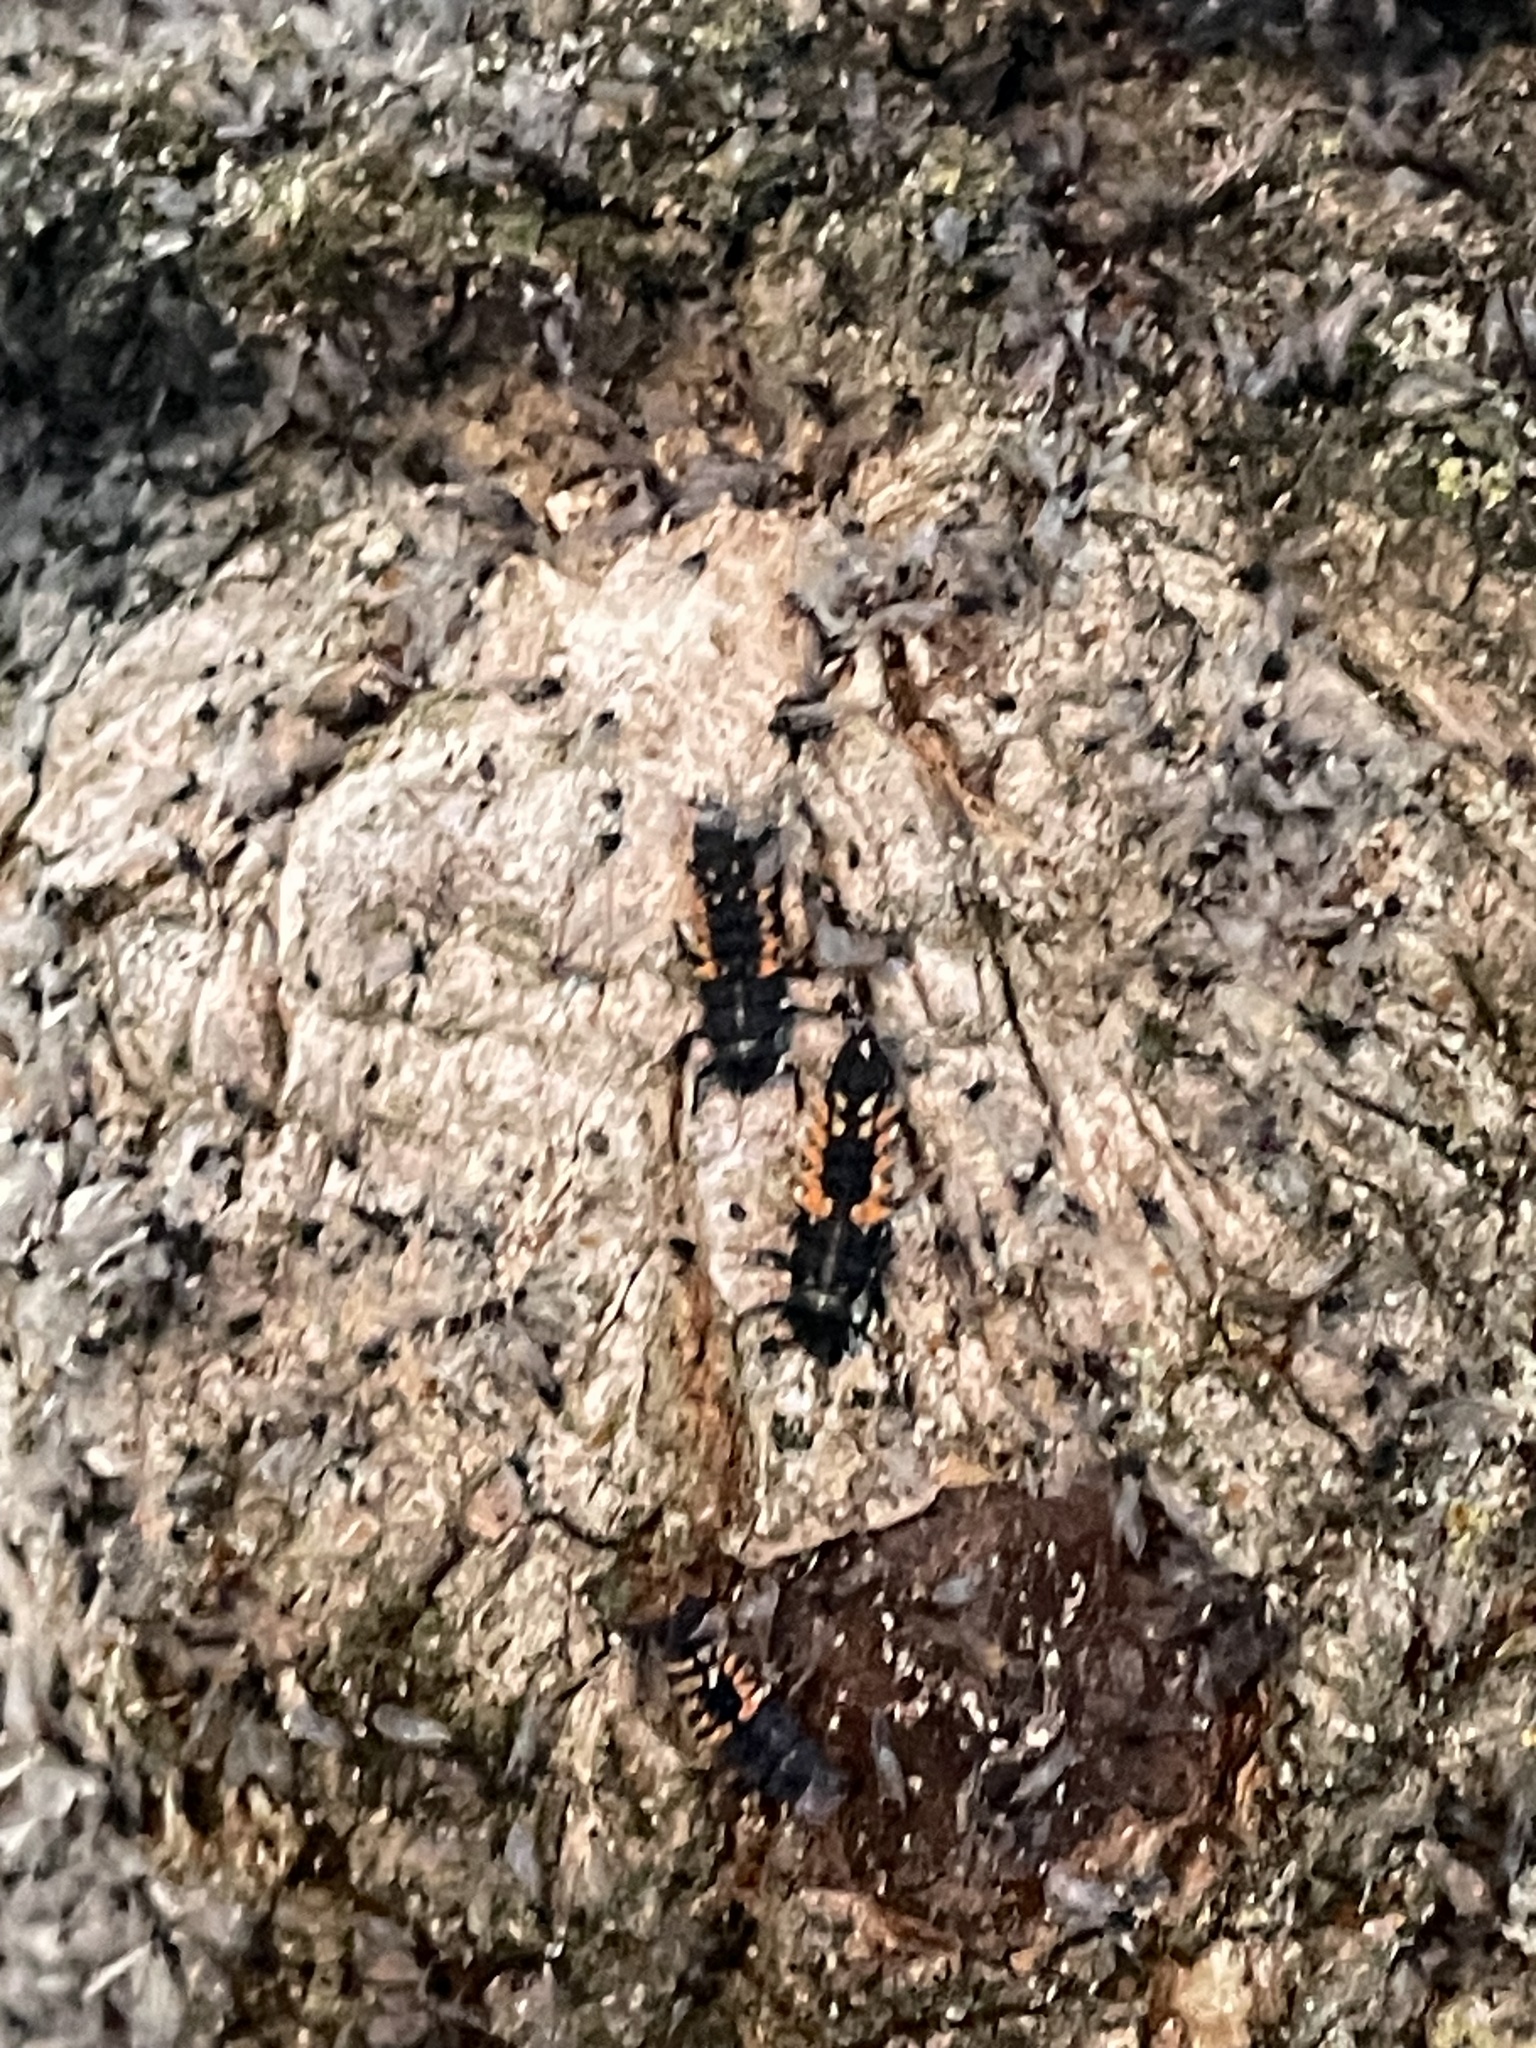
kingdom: Animalia
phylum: Arthropoda
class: Insecta
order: Coleoptera
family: Coccinellidae
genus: Harmonia
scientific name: Harmonia axyridis
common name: Harlequin ladybird
